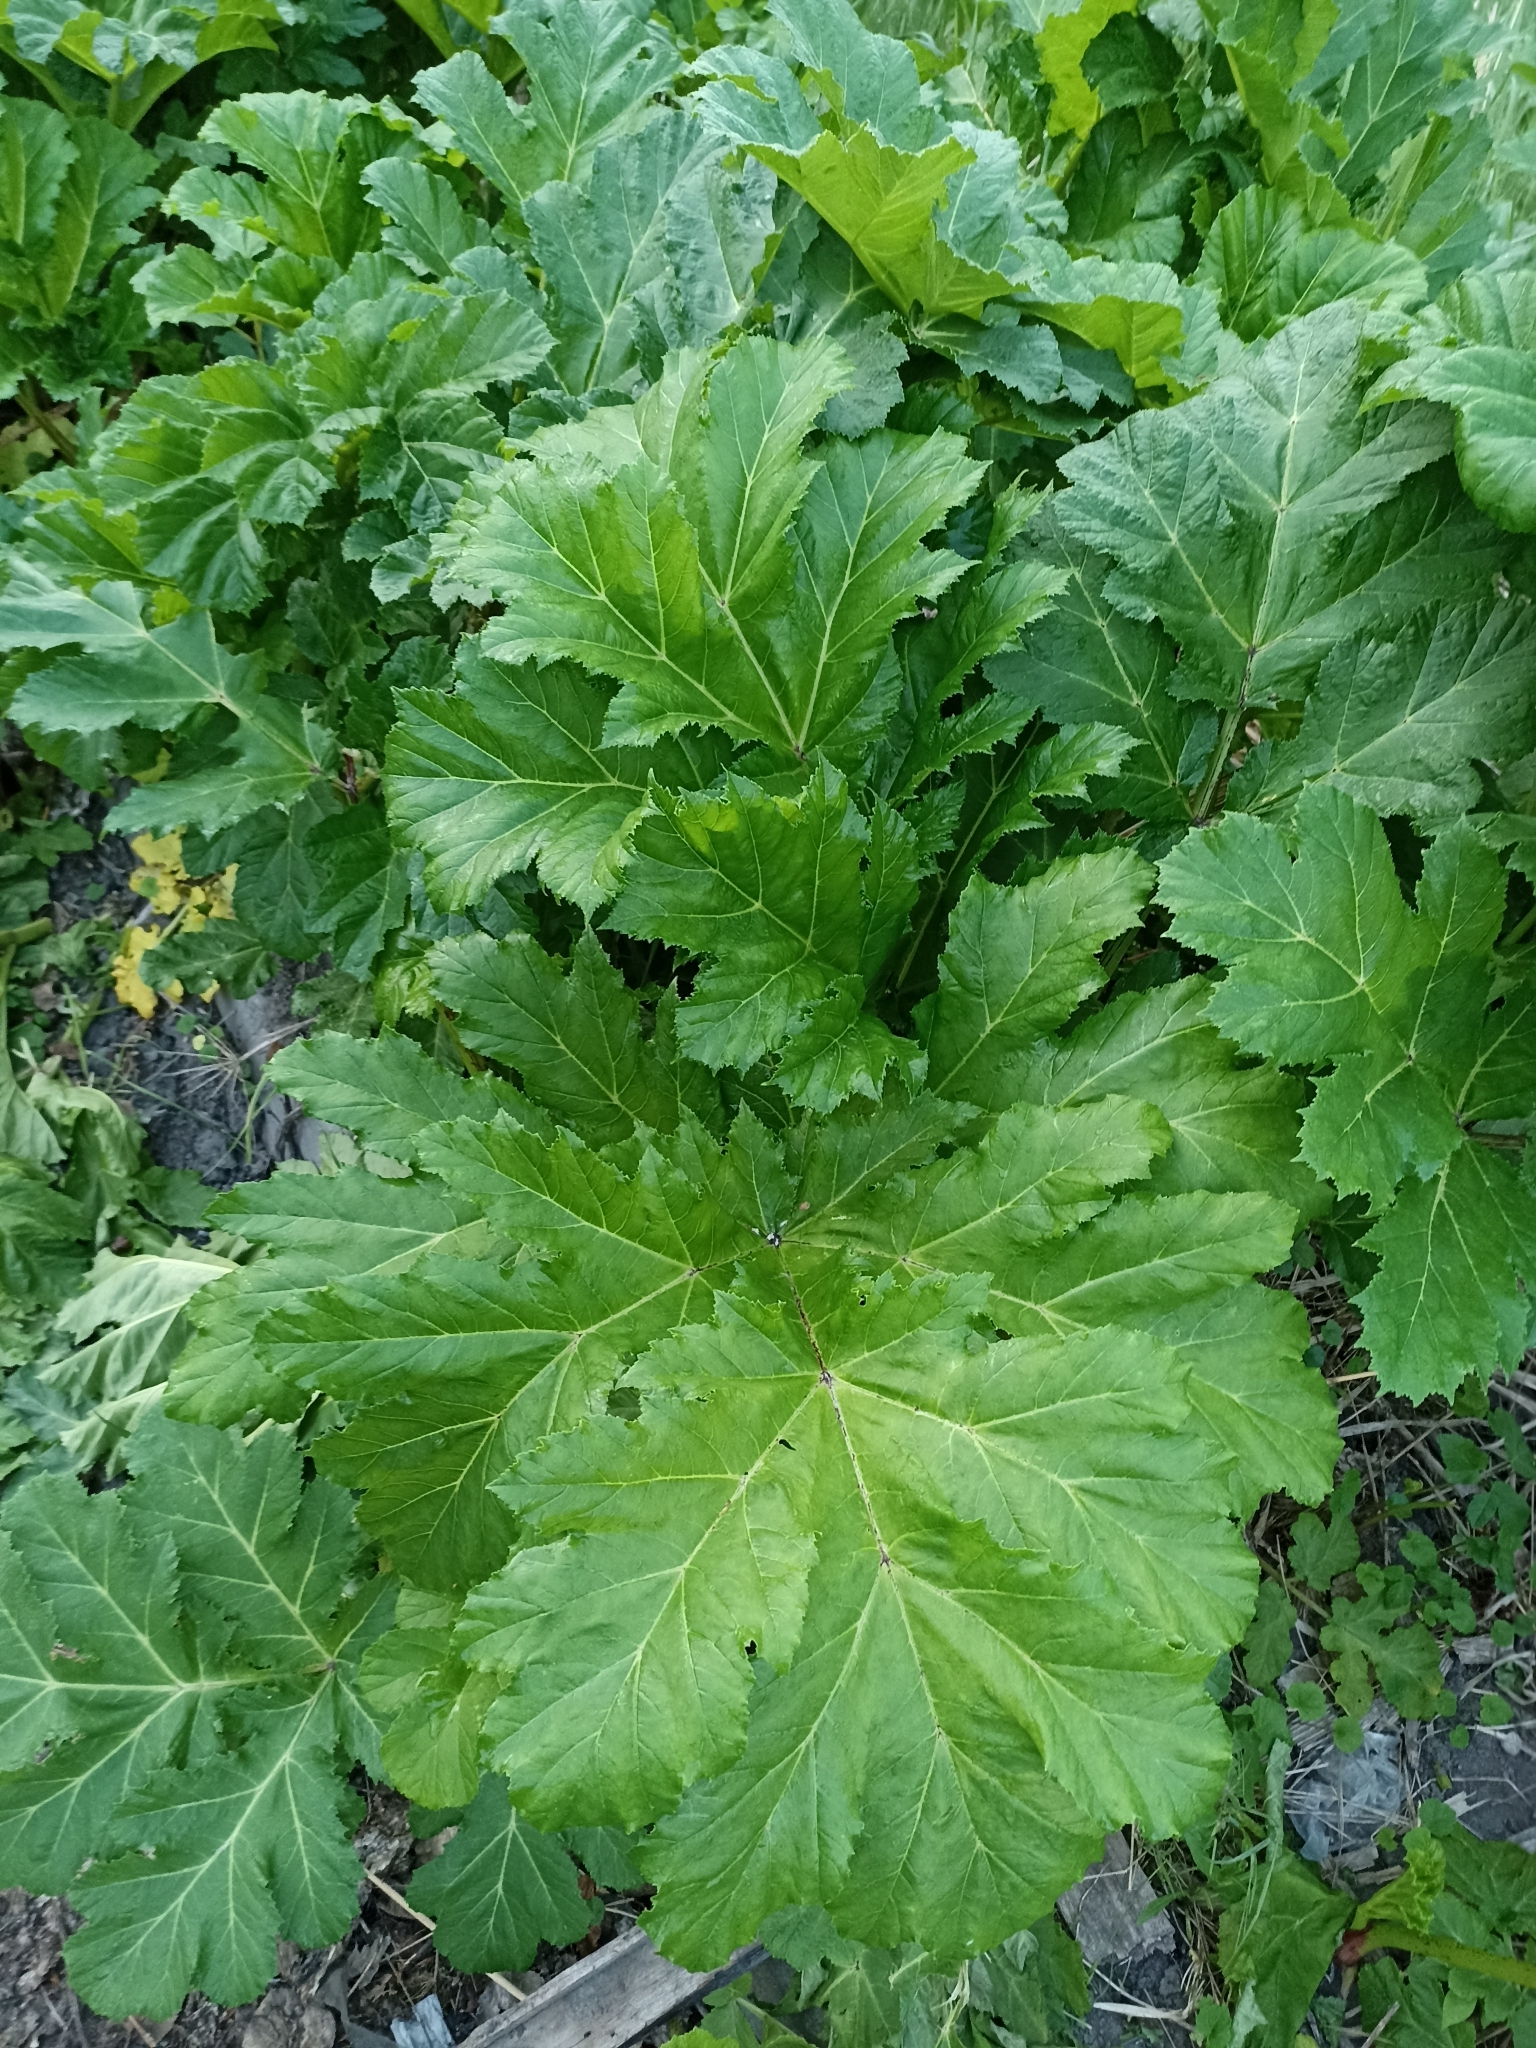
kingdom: Plantae
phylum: Tracheophyta
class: Magnoliopsida
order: Apiales
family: Apiaceae
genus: Heracleum
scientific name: Heracleum sosnowskyi
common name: Sosnowsky's hogweed
